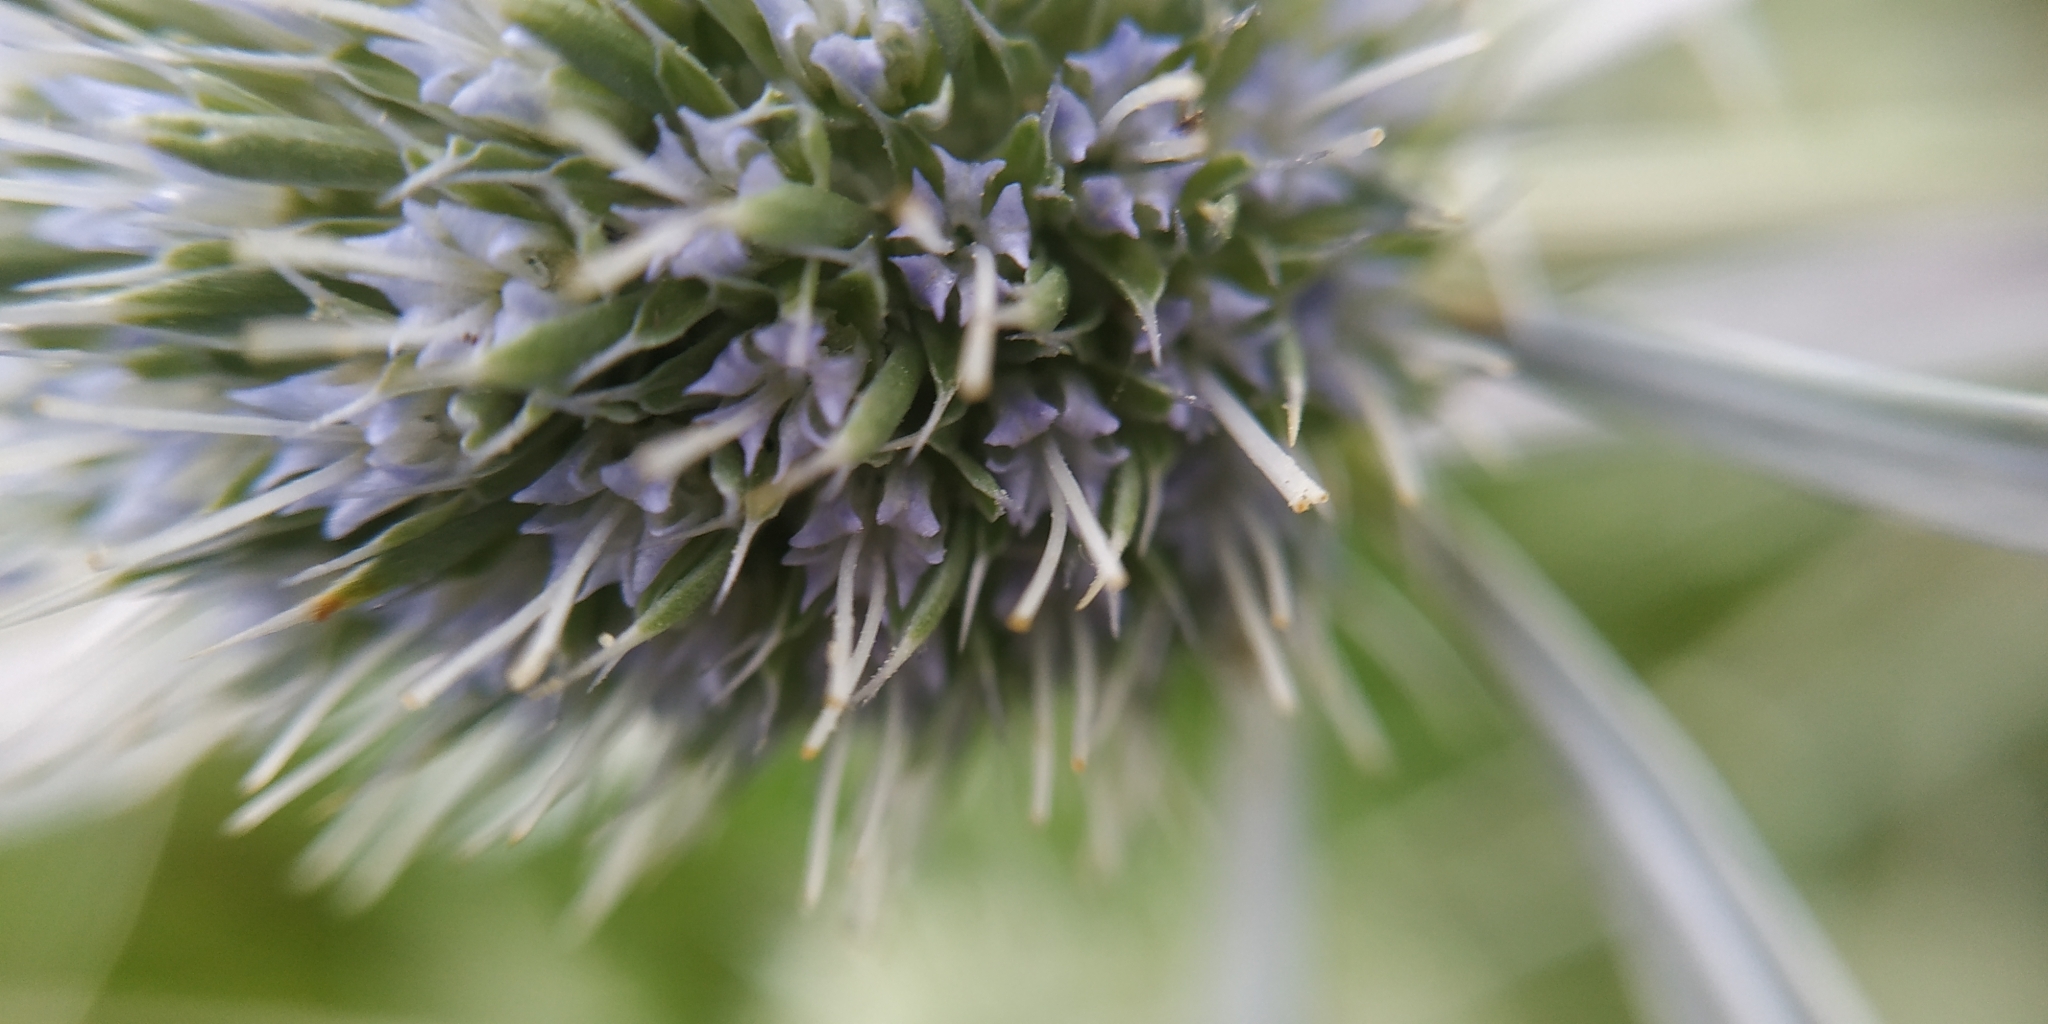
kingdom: Plantae
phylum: Tracheophyta
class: Magnoliopsida
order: Apiales
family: Apiaceae
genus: Eryngium
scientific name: Eryngium planum
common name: Blue eryngo
